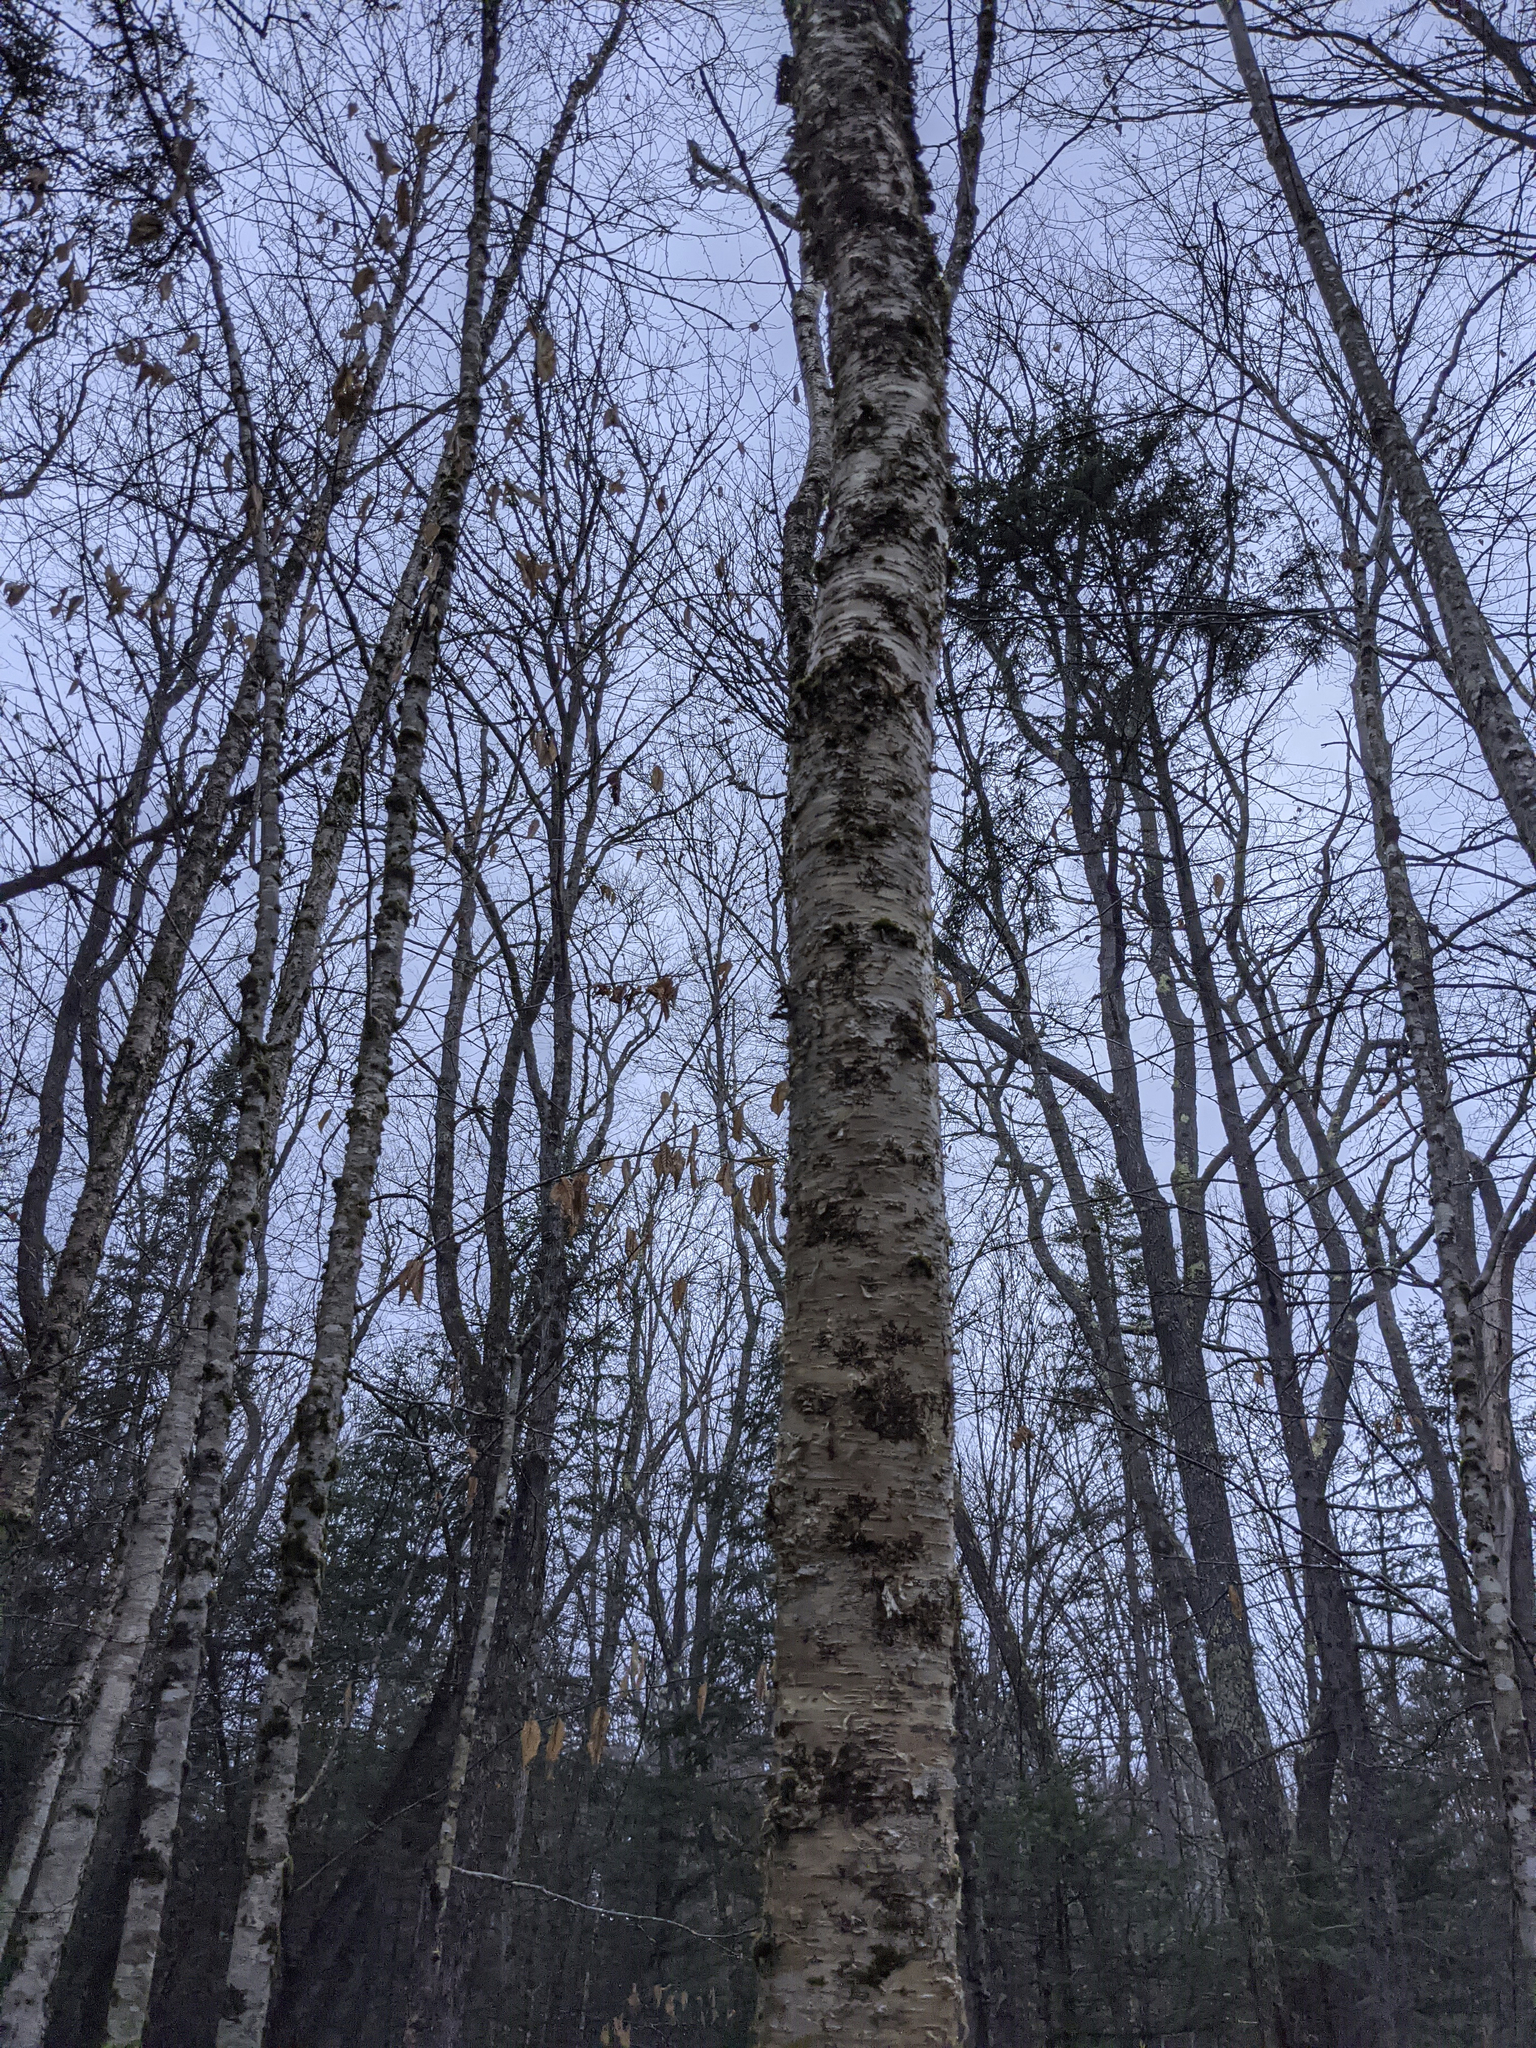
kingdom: Plantae
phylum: Tracheophyta
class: Magnoliopsida
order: Fagales
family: Betulaceae
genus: Betula
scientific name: Betula alleghaniensis
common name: Yellow birch
